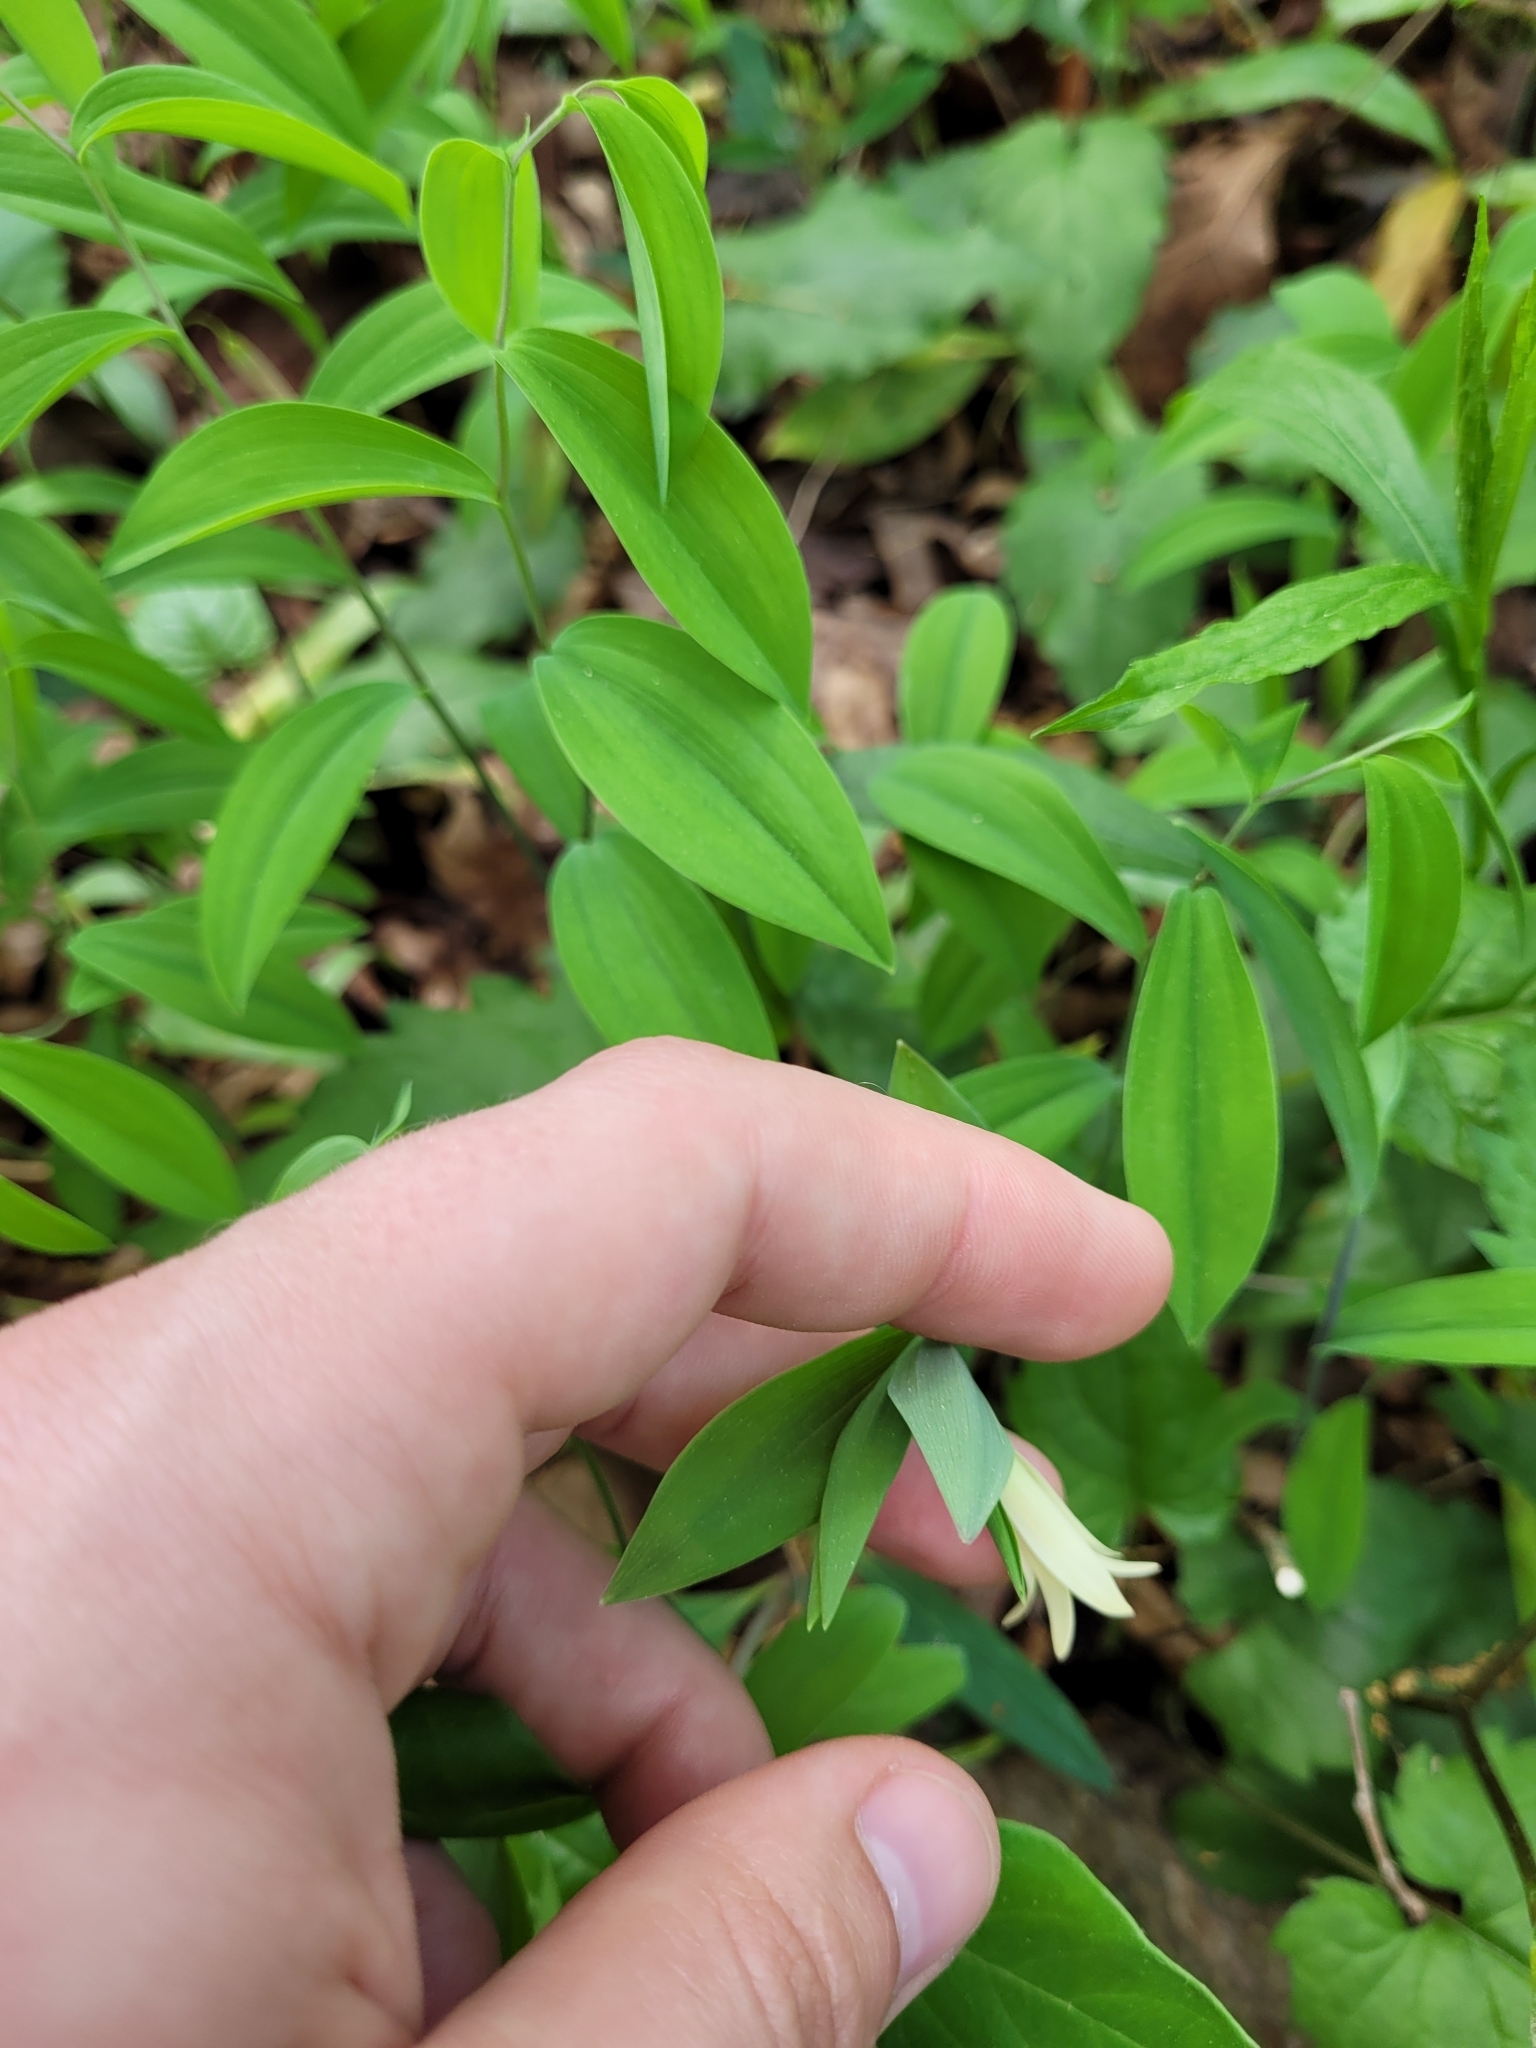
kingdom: Plantae
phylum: Tracheophyta
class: Liliopsida
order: Liliales
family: Colchicaceae
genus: Uvularia
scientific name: Uvularia sessilifolia
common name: Straw-lily
